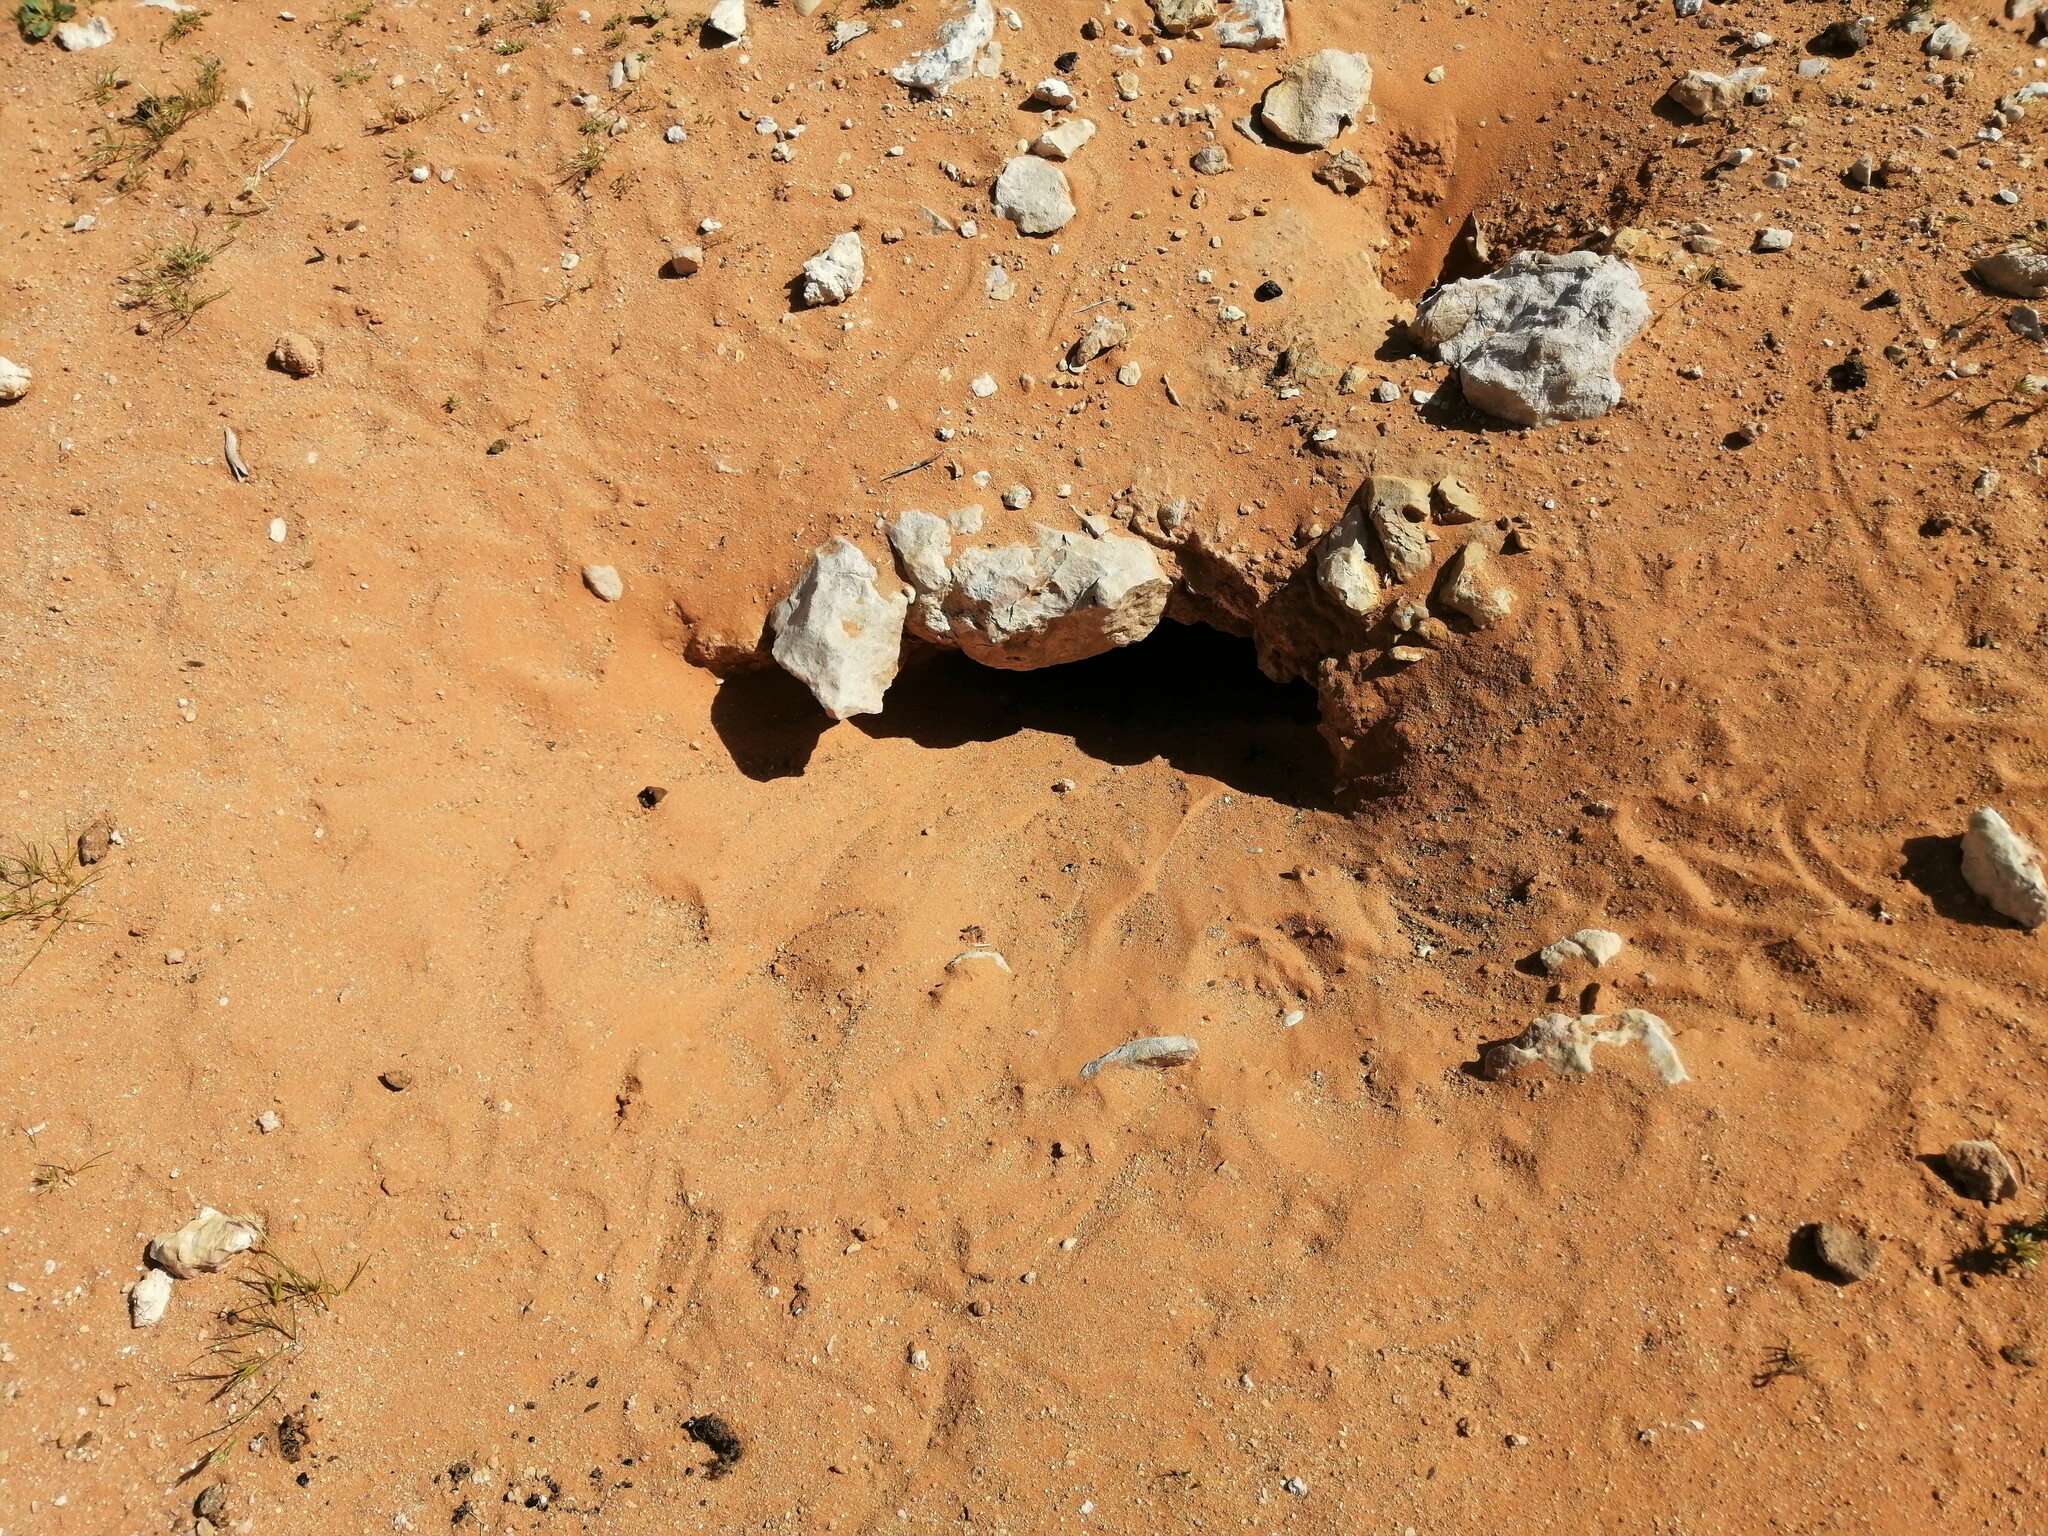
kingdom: Animalia
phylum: Chordata
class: Squamata
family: Agamidae
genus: Uromastyx
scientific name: Uromastyx aegyptia
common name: Egyptian mastigure
